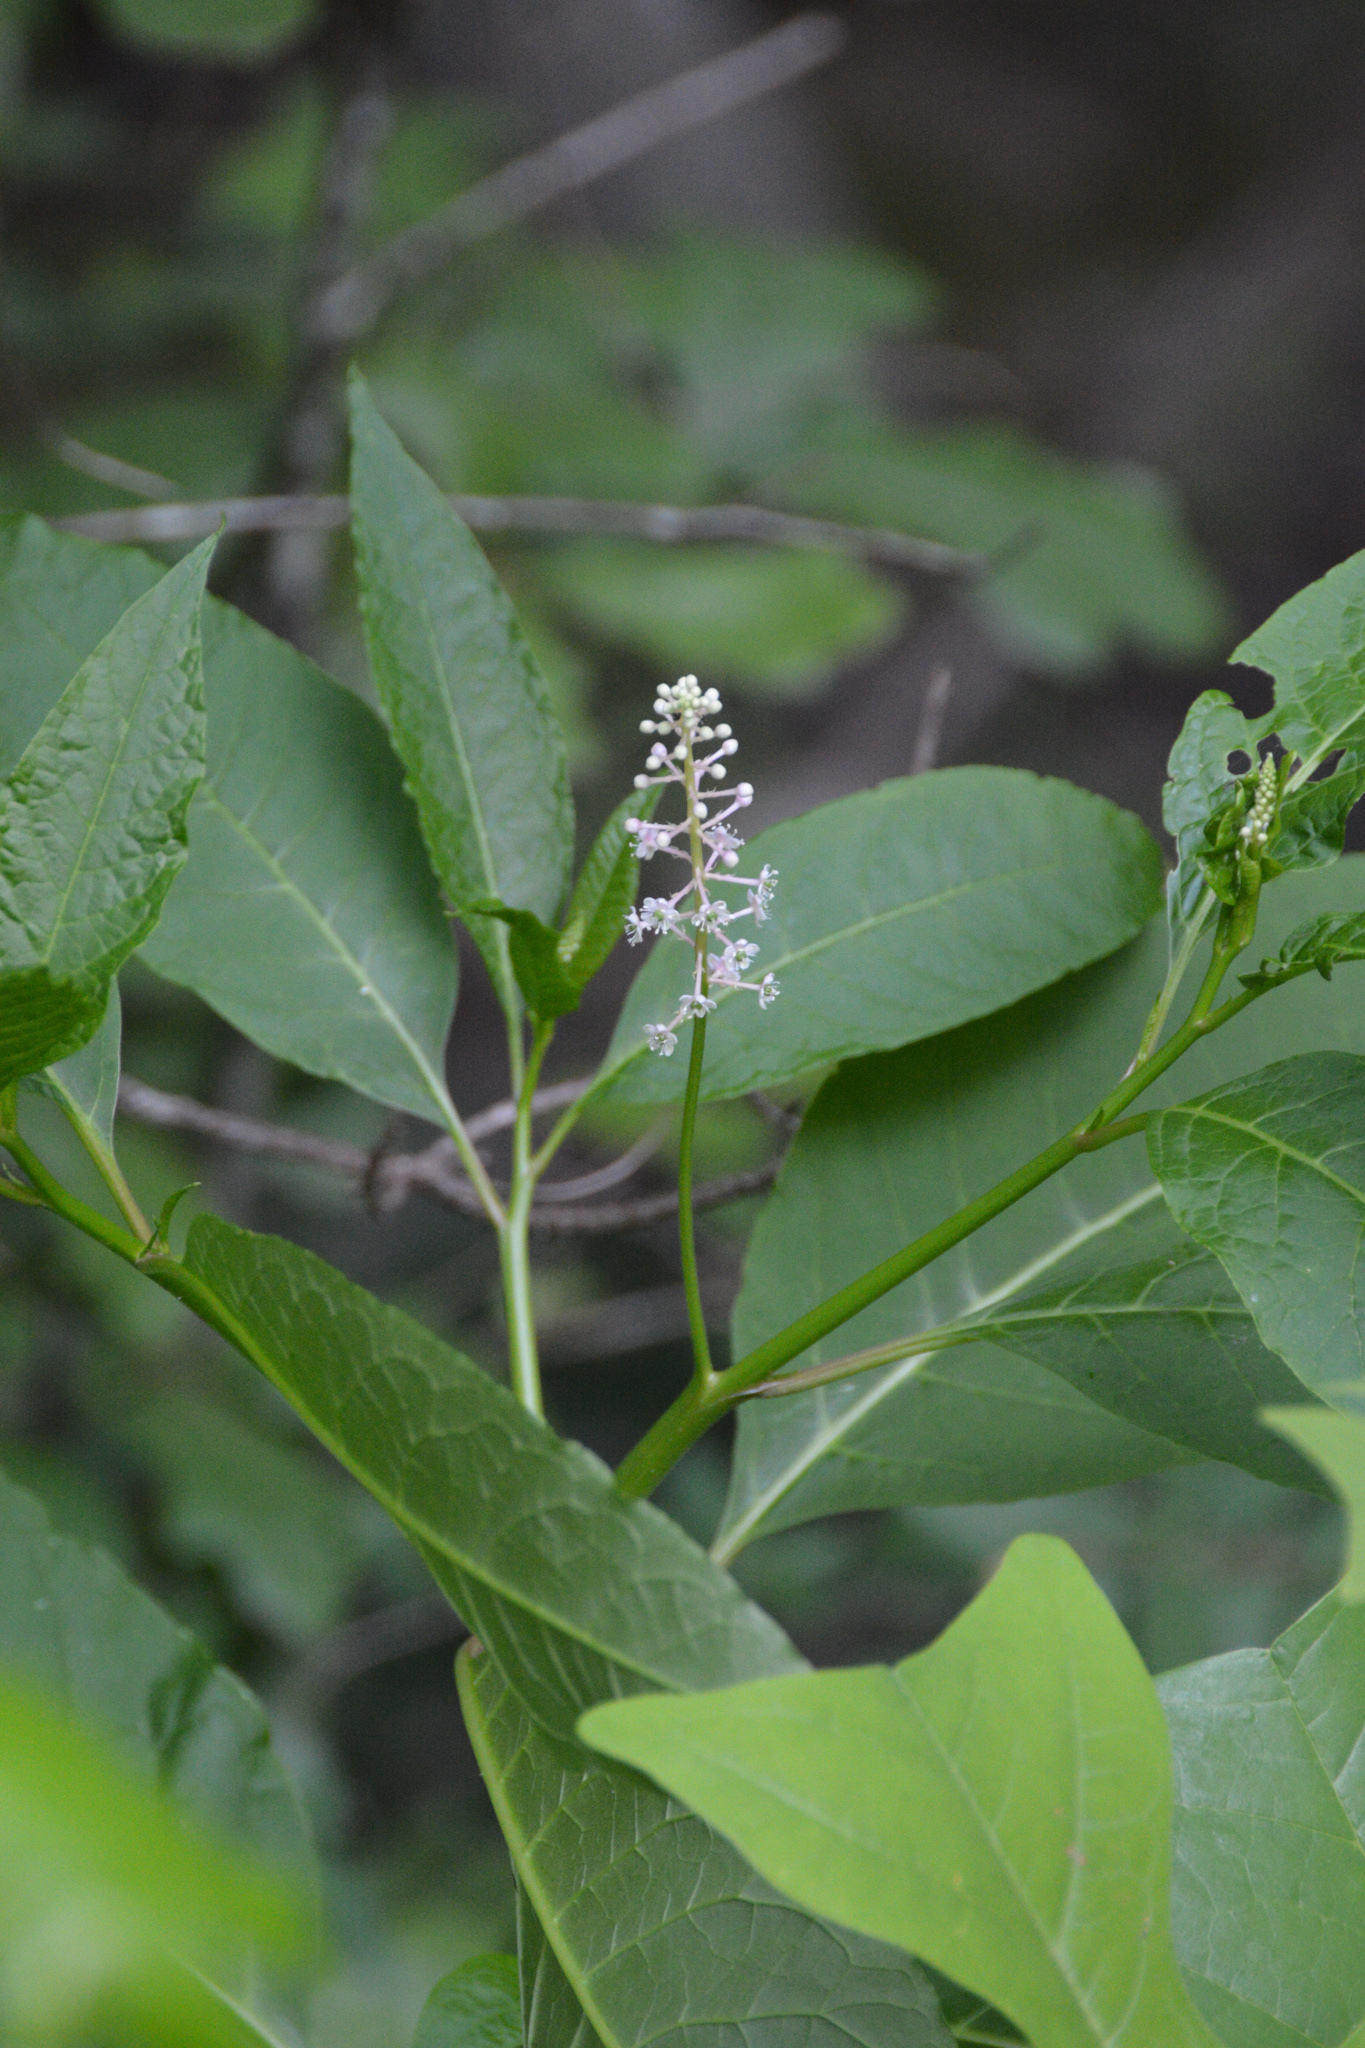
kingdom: Plantae
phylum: Tracheophyta
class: Magnoliopsida
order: Caryophyllales
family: Phytolaccaceae
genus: Phytolacca
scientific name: Phytolacca americana
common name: American pokeweed
